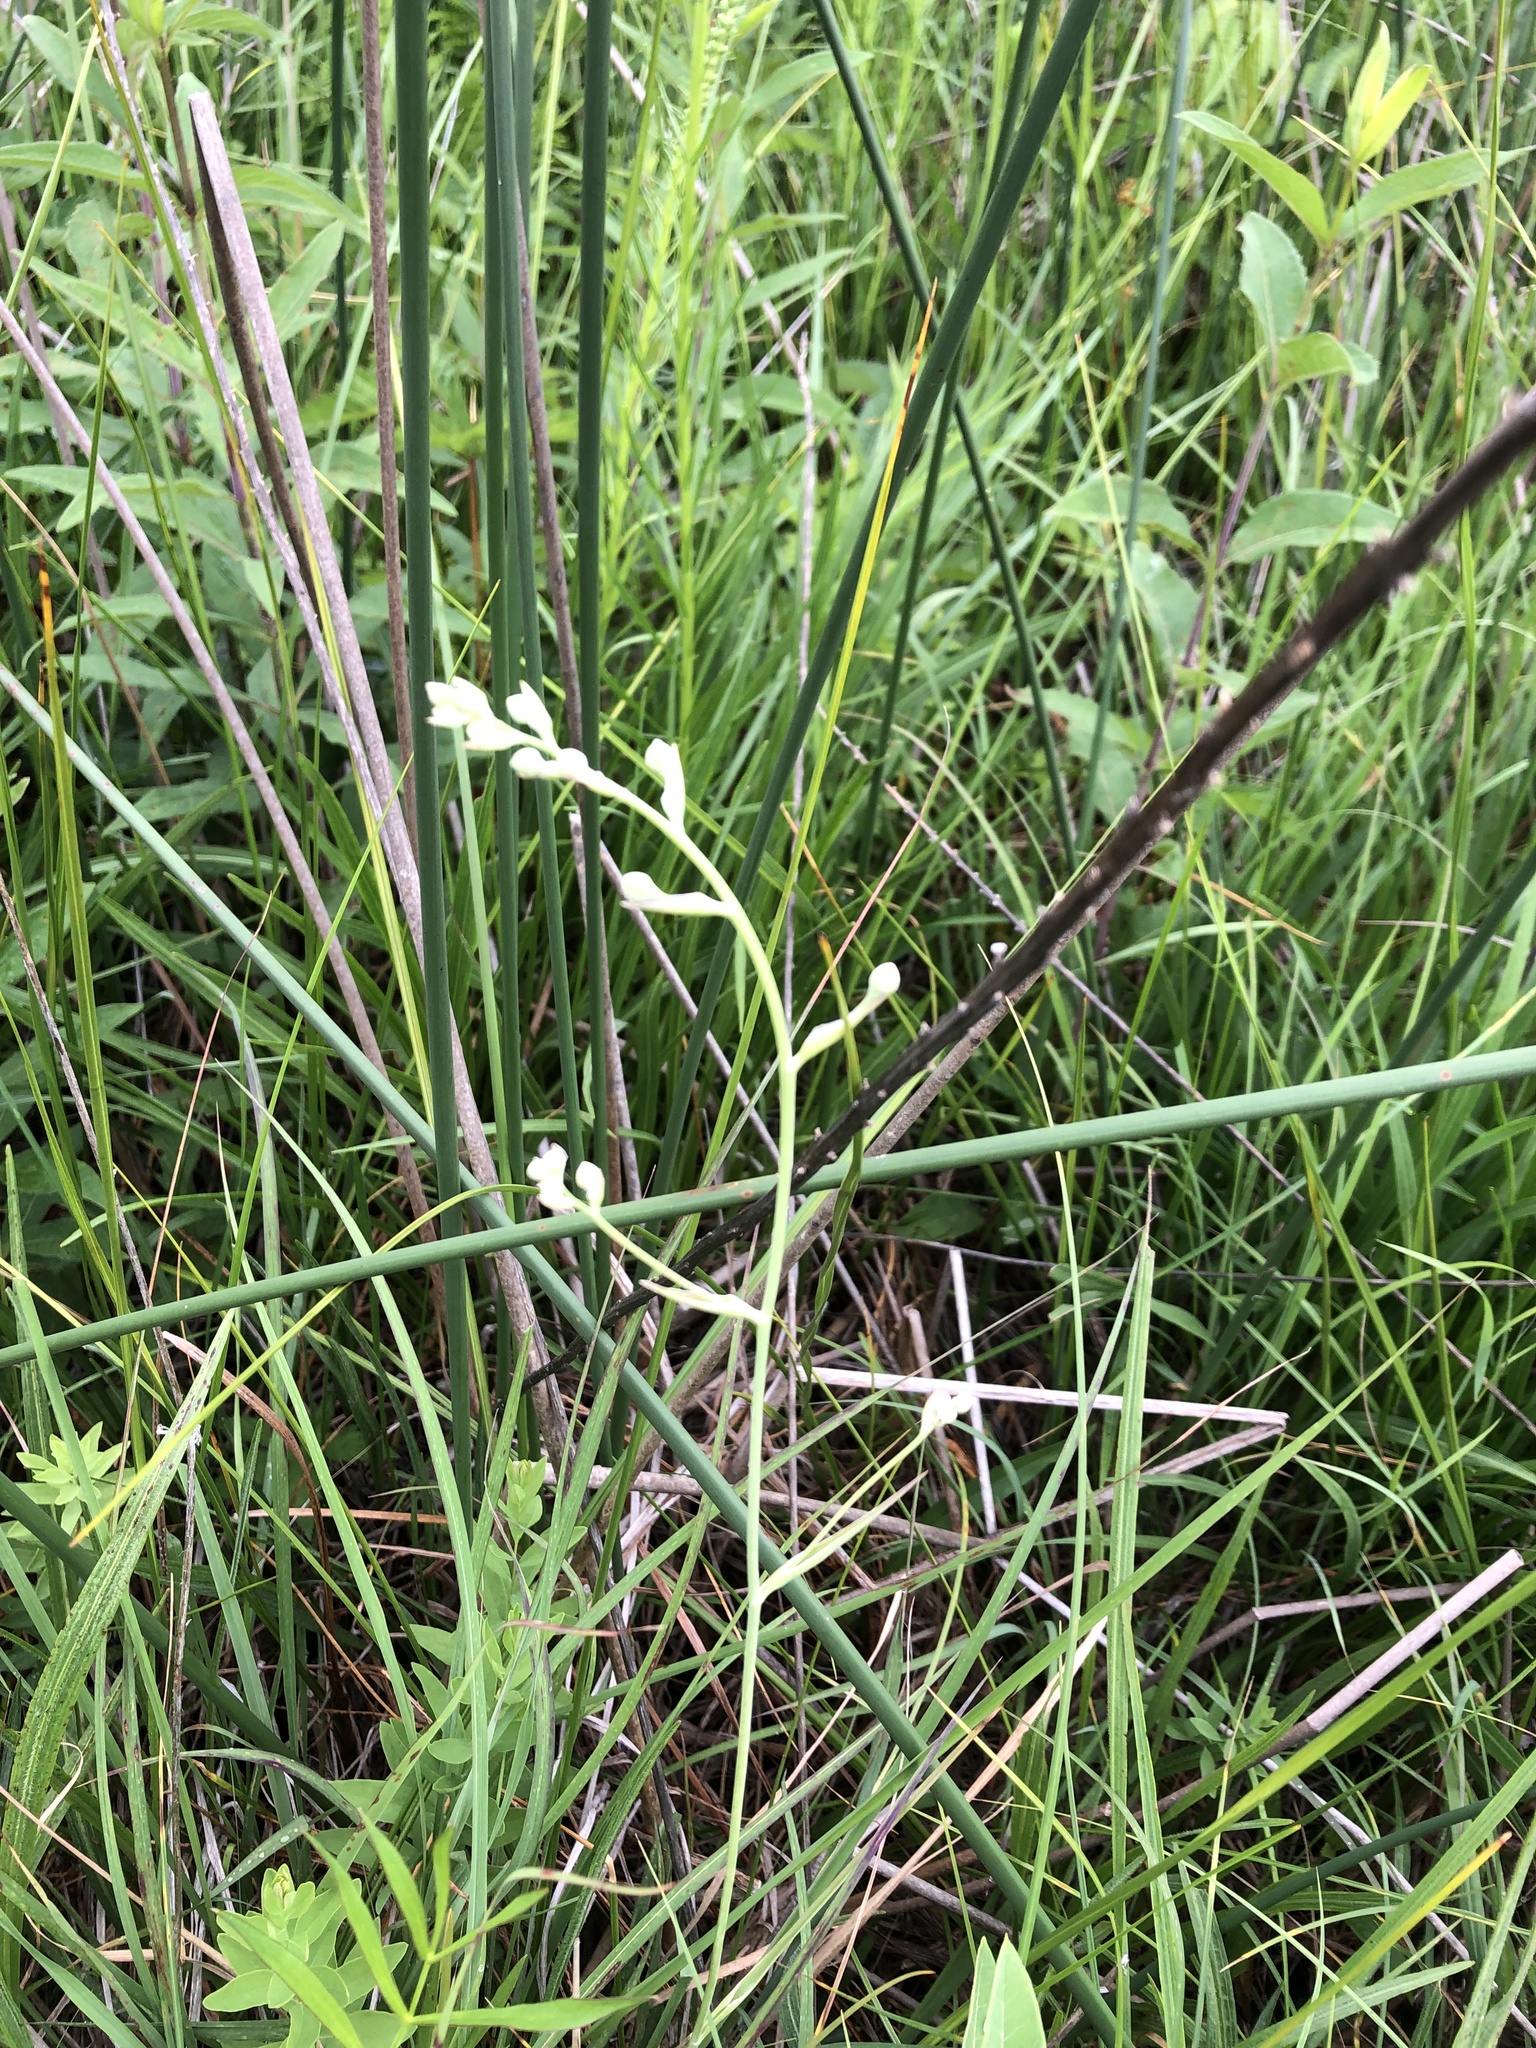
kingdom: Plantae
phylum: Tracheophyta
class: Liliopsida
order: Liliales
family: Melanthiaceae
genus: Anticlea
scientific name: Anticlea elegans
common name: Mountain death camas
